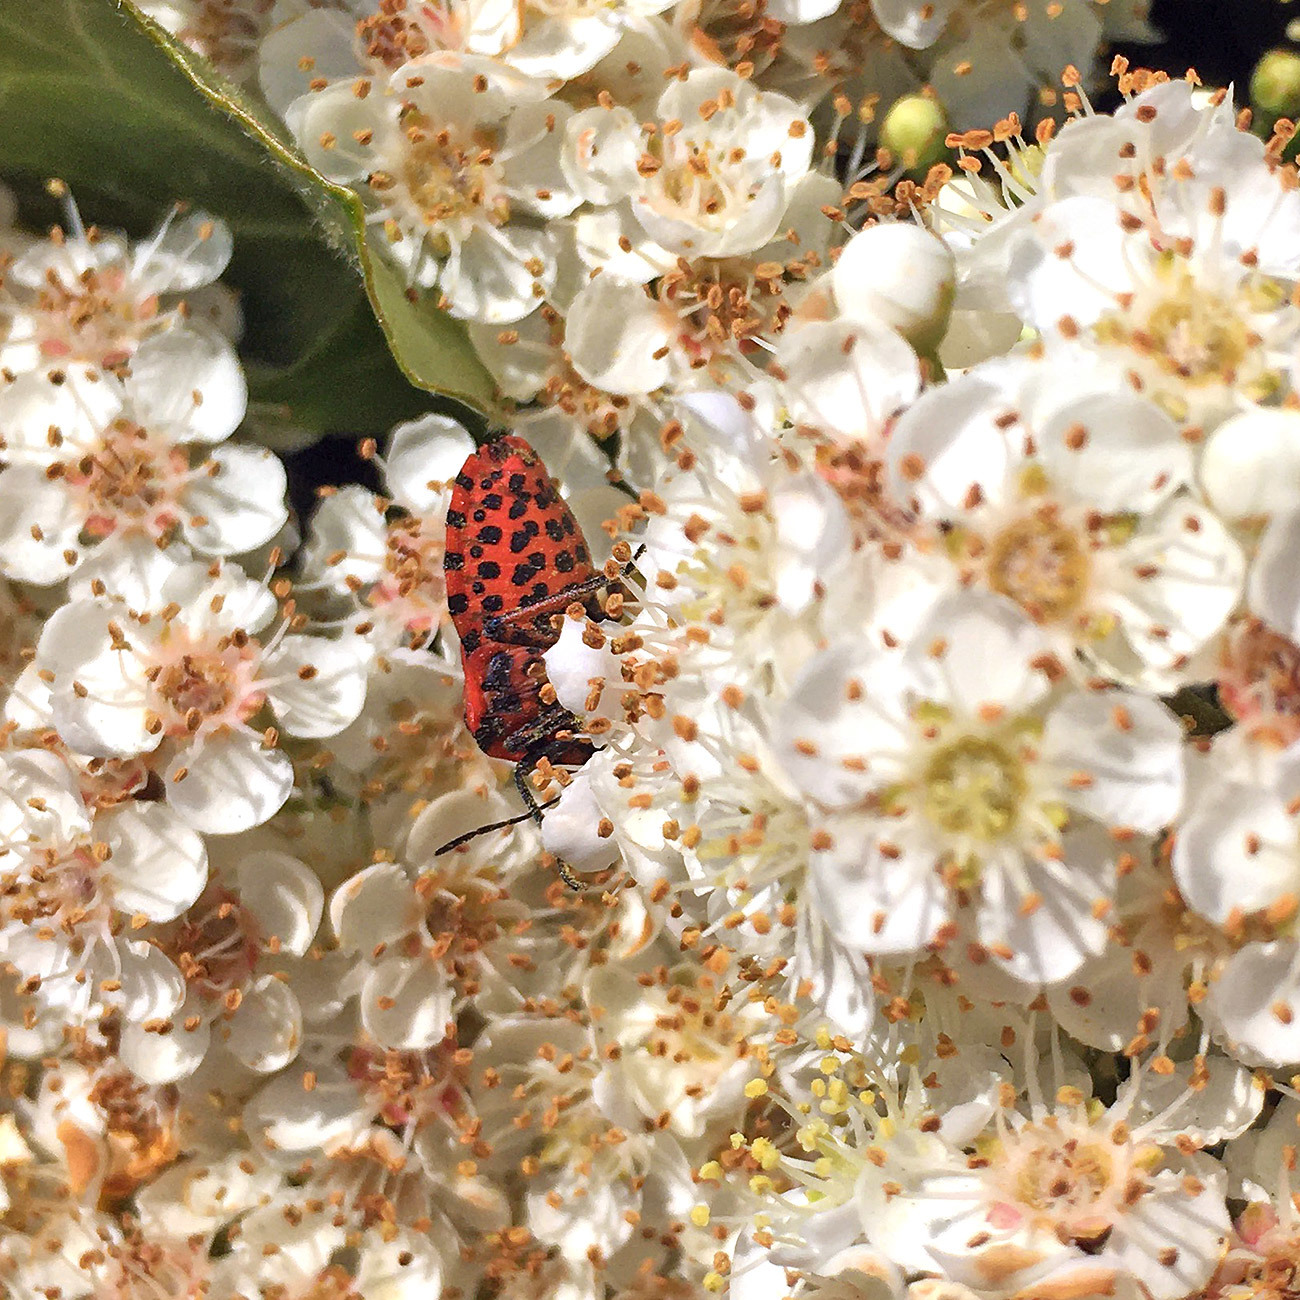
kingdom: Animalia
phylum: Arthropoda
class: Insecta
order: Hemiptera
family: Pentatomidae
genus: Graphosoma
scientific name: Graphosoma italicum
